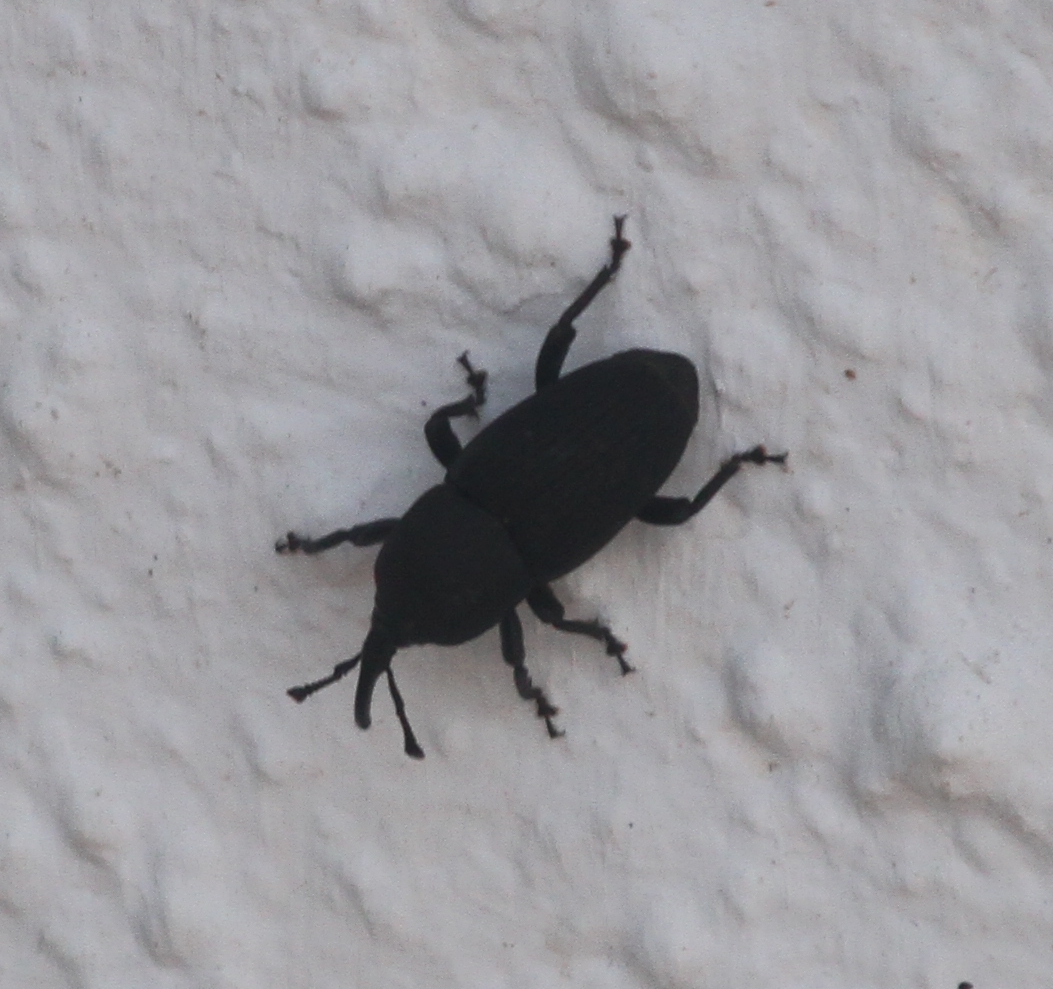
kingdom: Animalia
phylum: Arthropoda
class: Insecta
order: Coleoptera
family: Dryophthoridae
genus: Scyphophorus
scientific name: Scyphophorus acupunctatus
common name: Weevil
